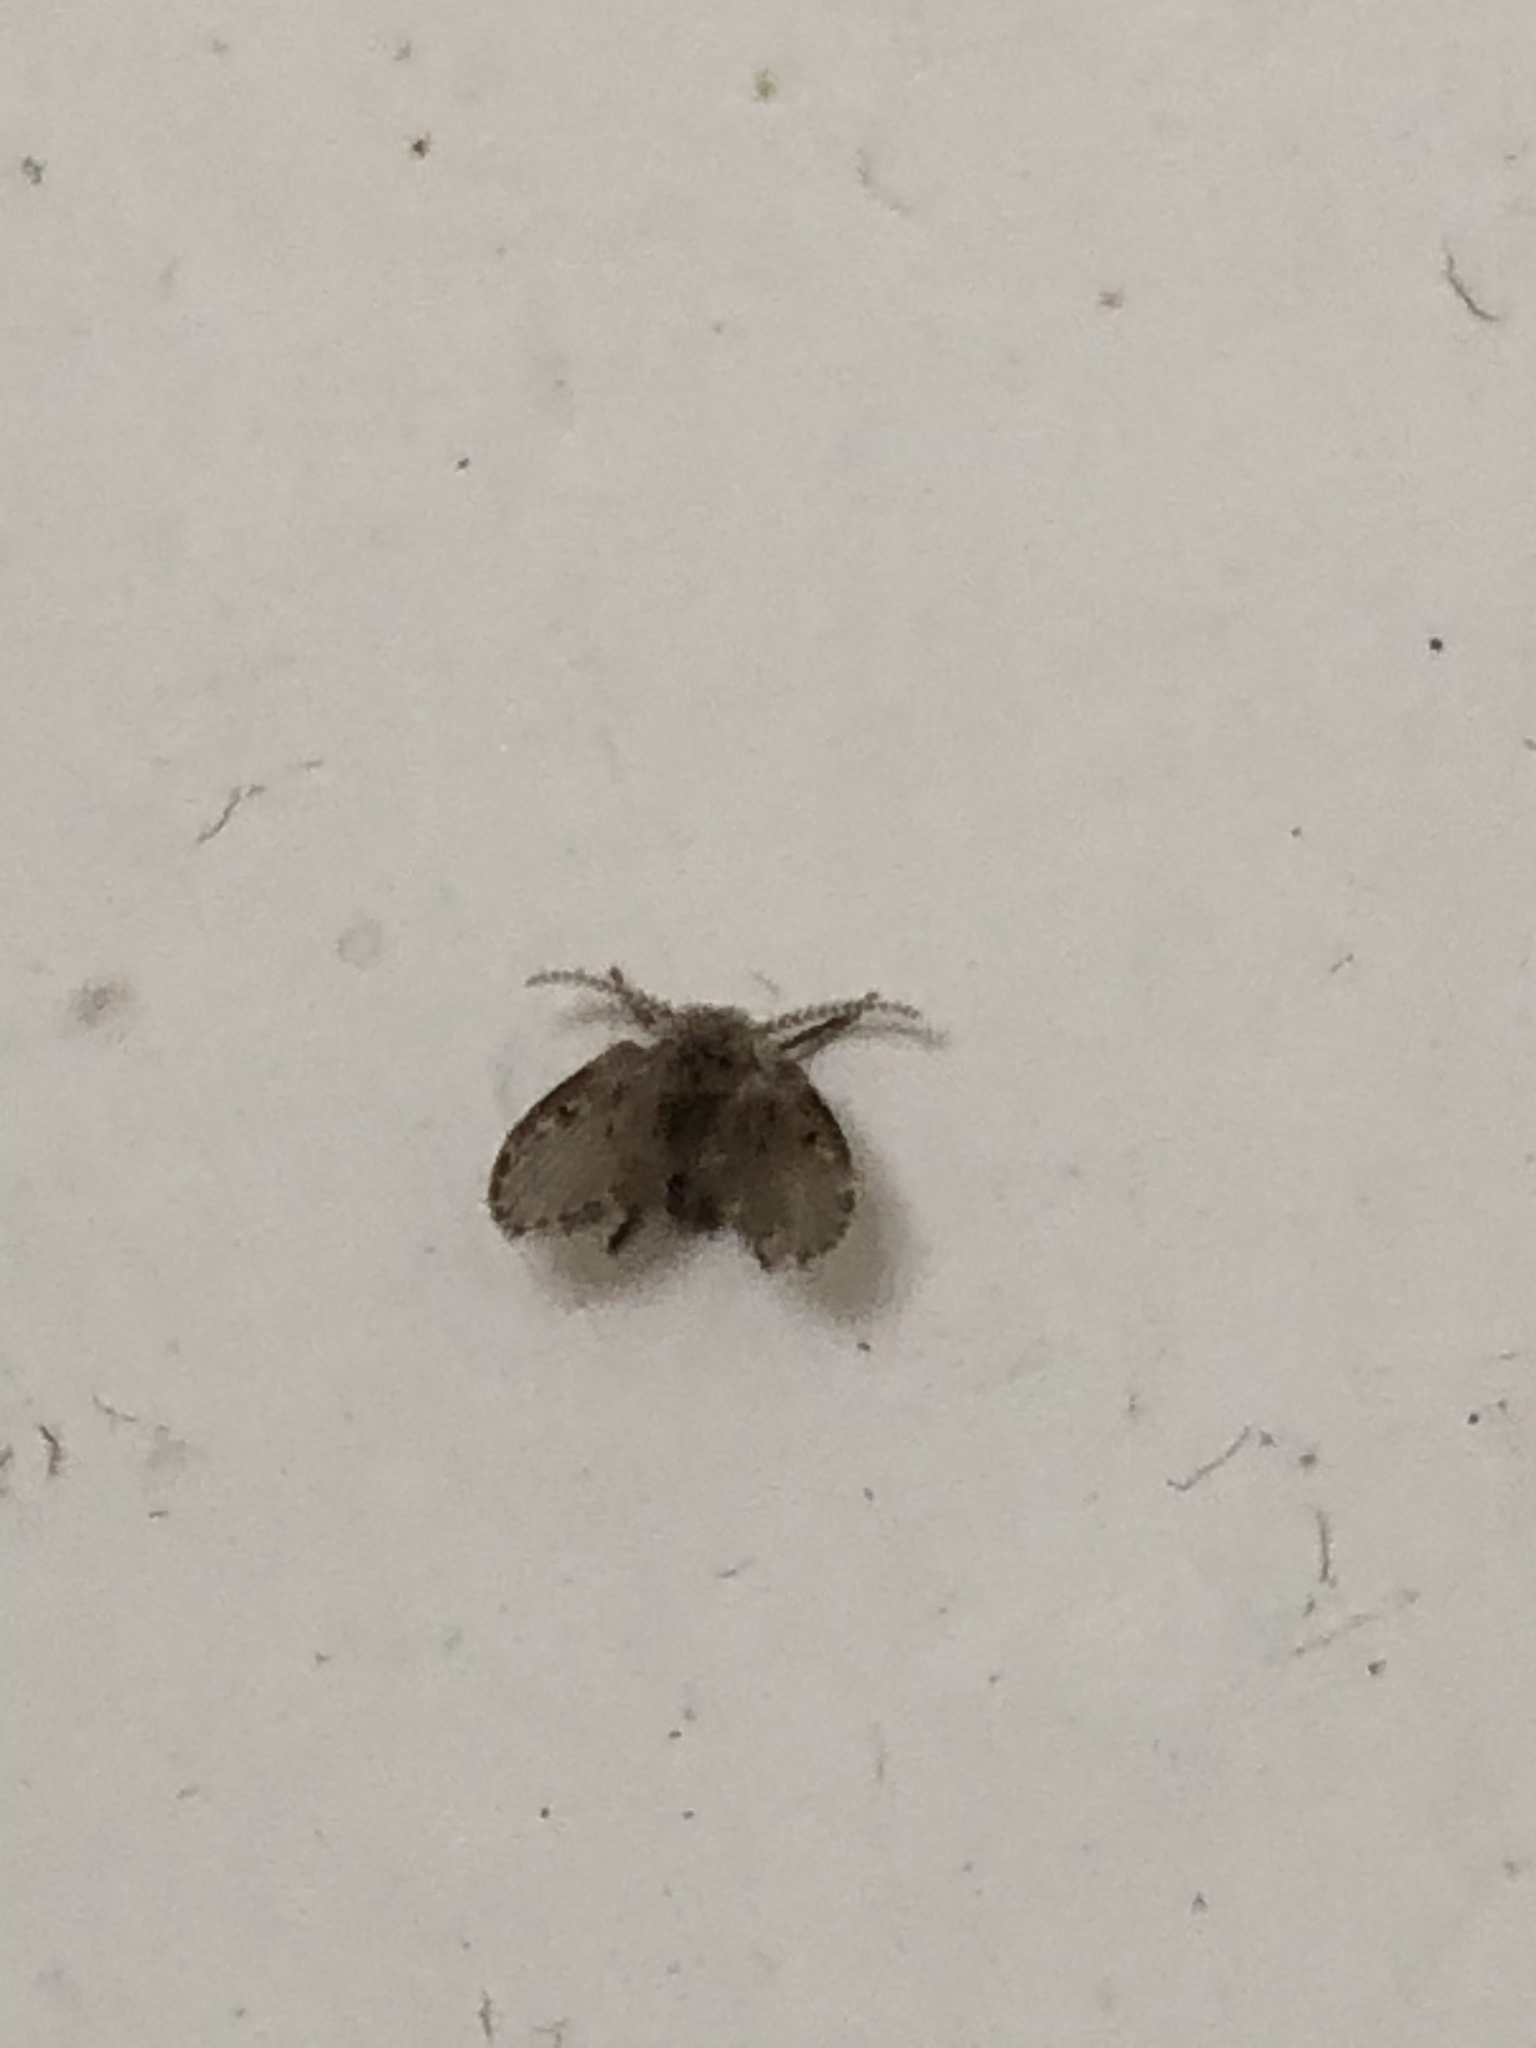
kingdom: Animalia
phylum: Arthropoda
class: Insecta
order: Diptera
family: Psychodidae
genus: Clogmia
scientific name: Clogmia albipunctatus
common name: White-spotted moth fly
